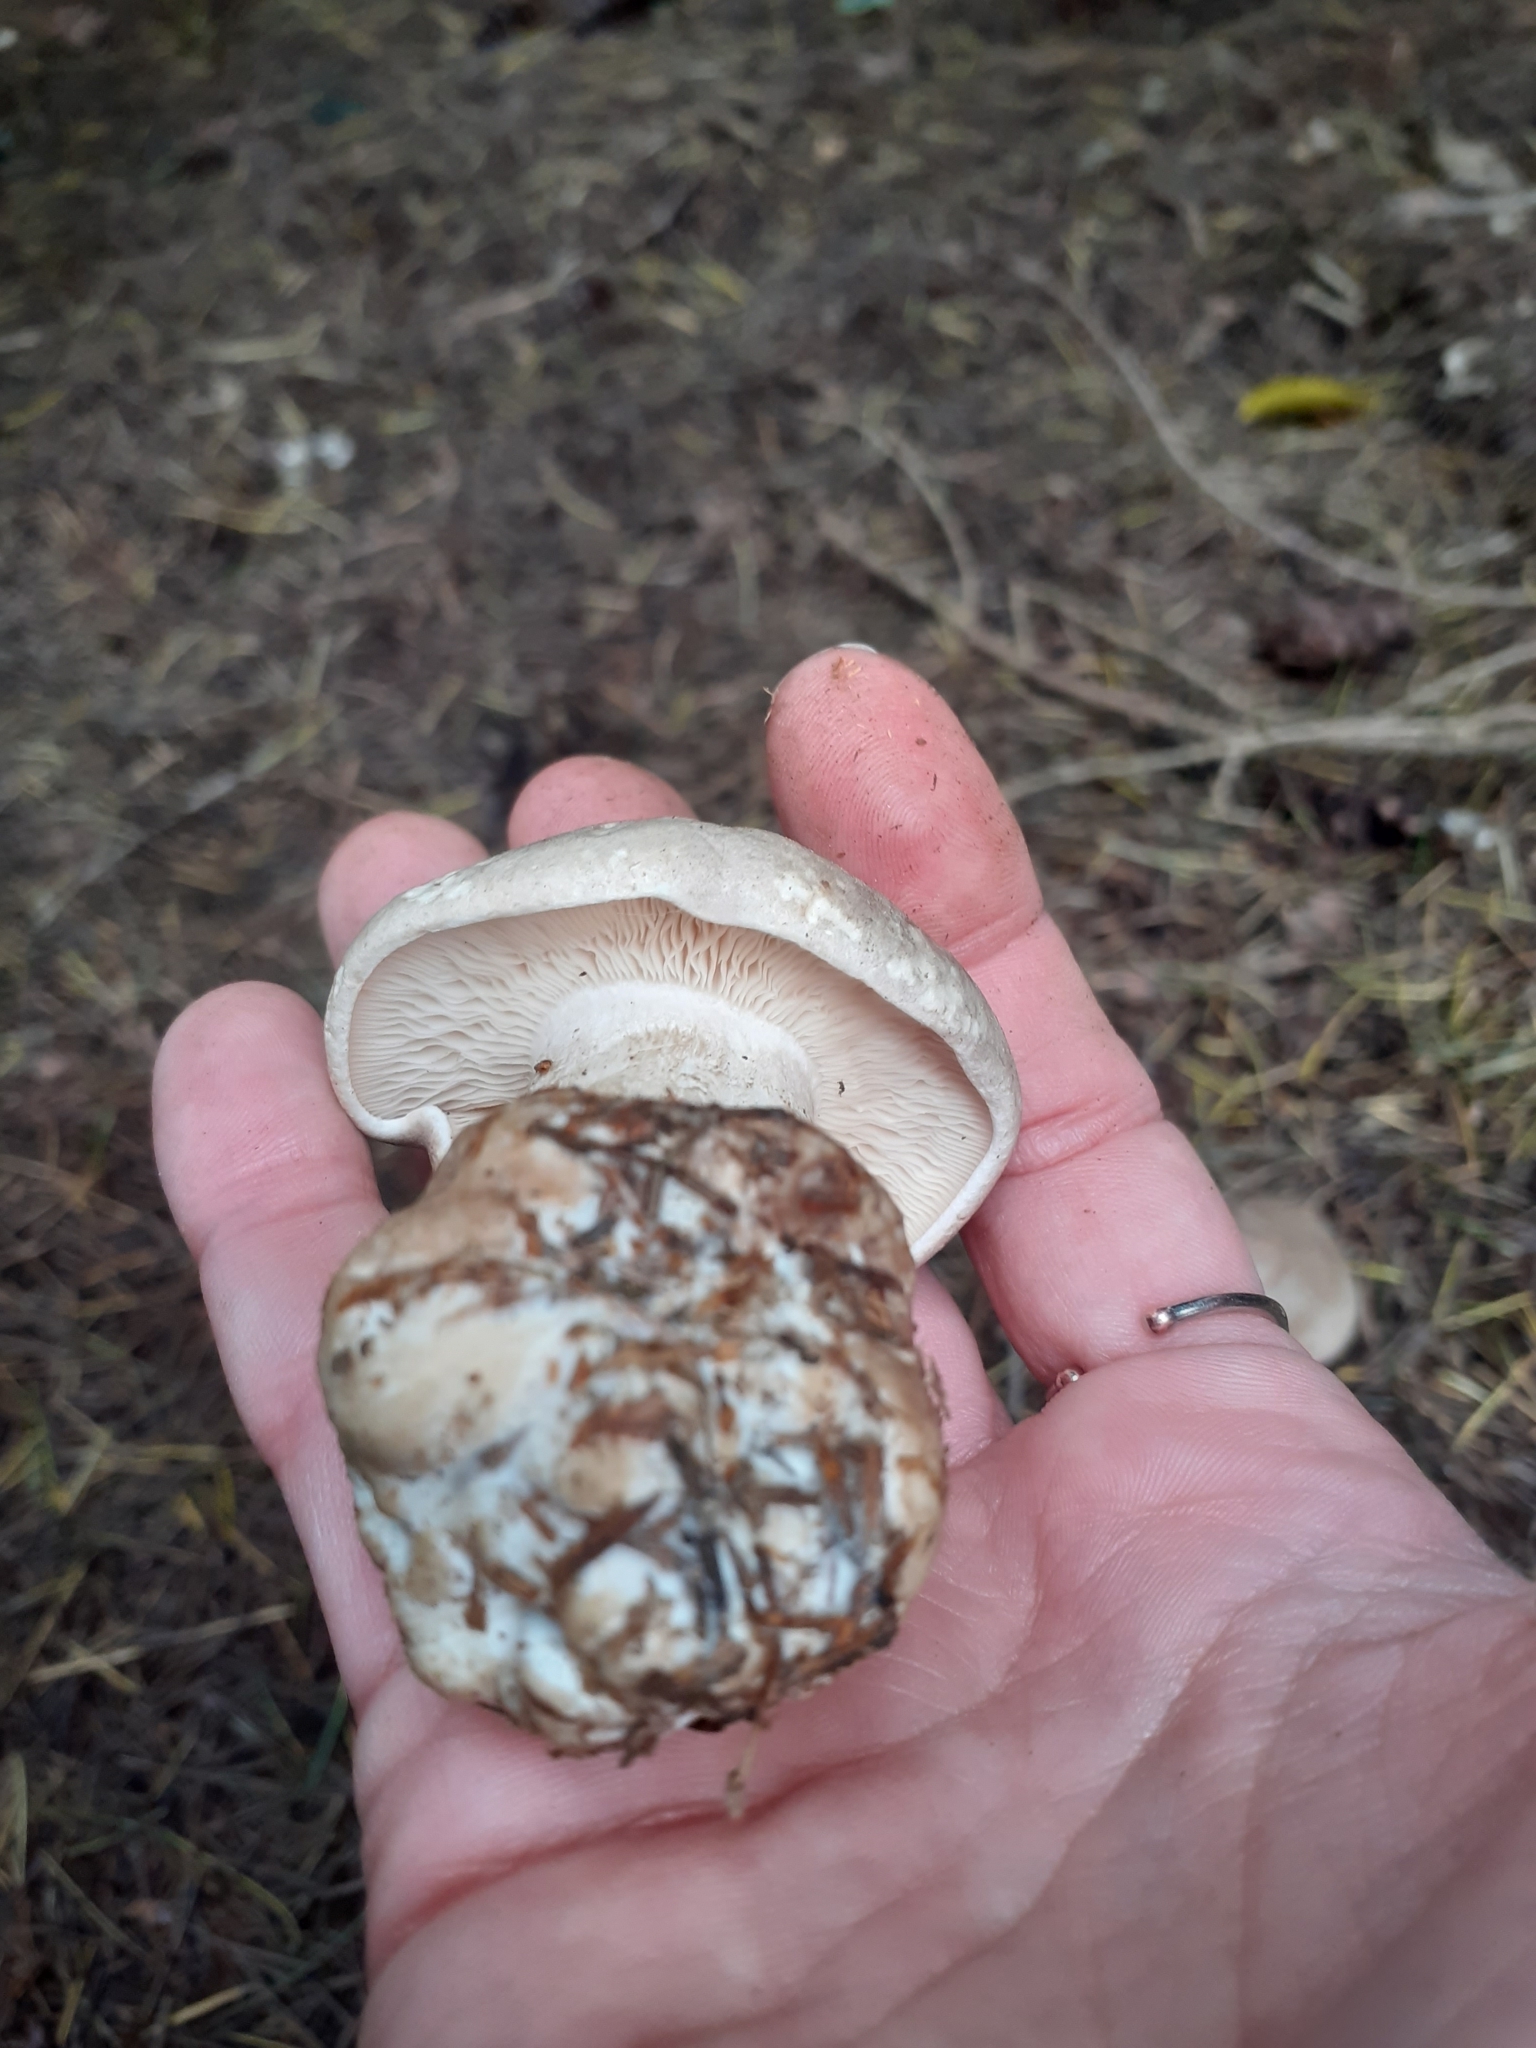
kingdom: Fungi
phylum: Basidiomycota
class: Agaricomycetes
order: Agaricales
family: Tricholomataceae
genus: Clitocybe
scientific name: Clitocybe nebularis
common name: Clouded agaric
